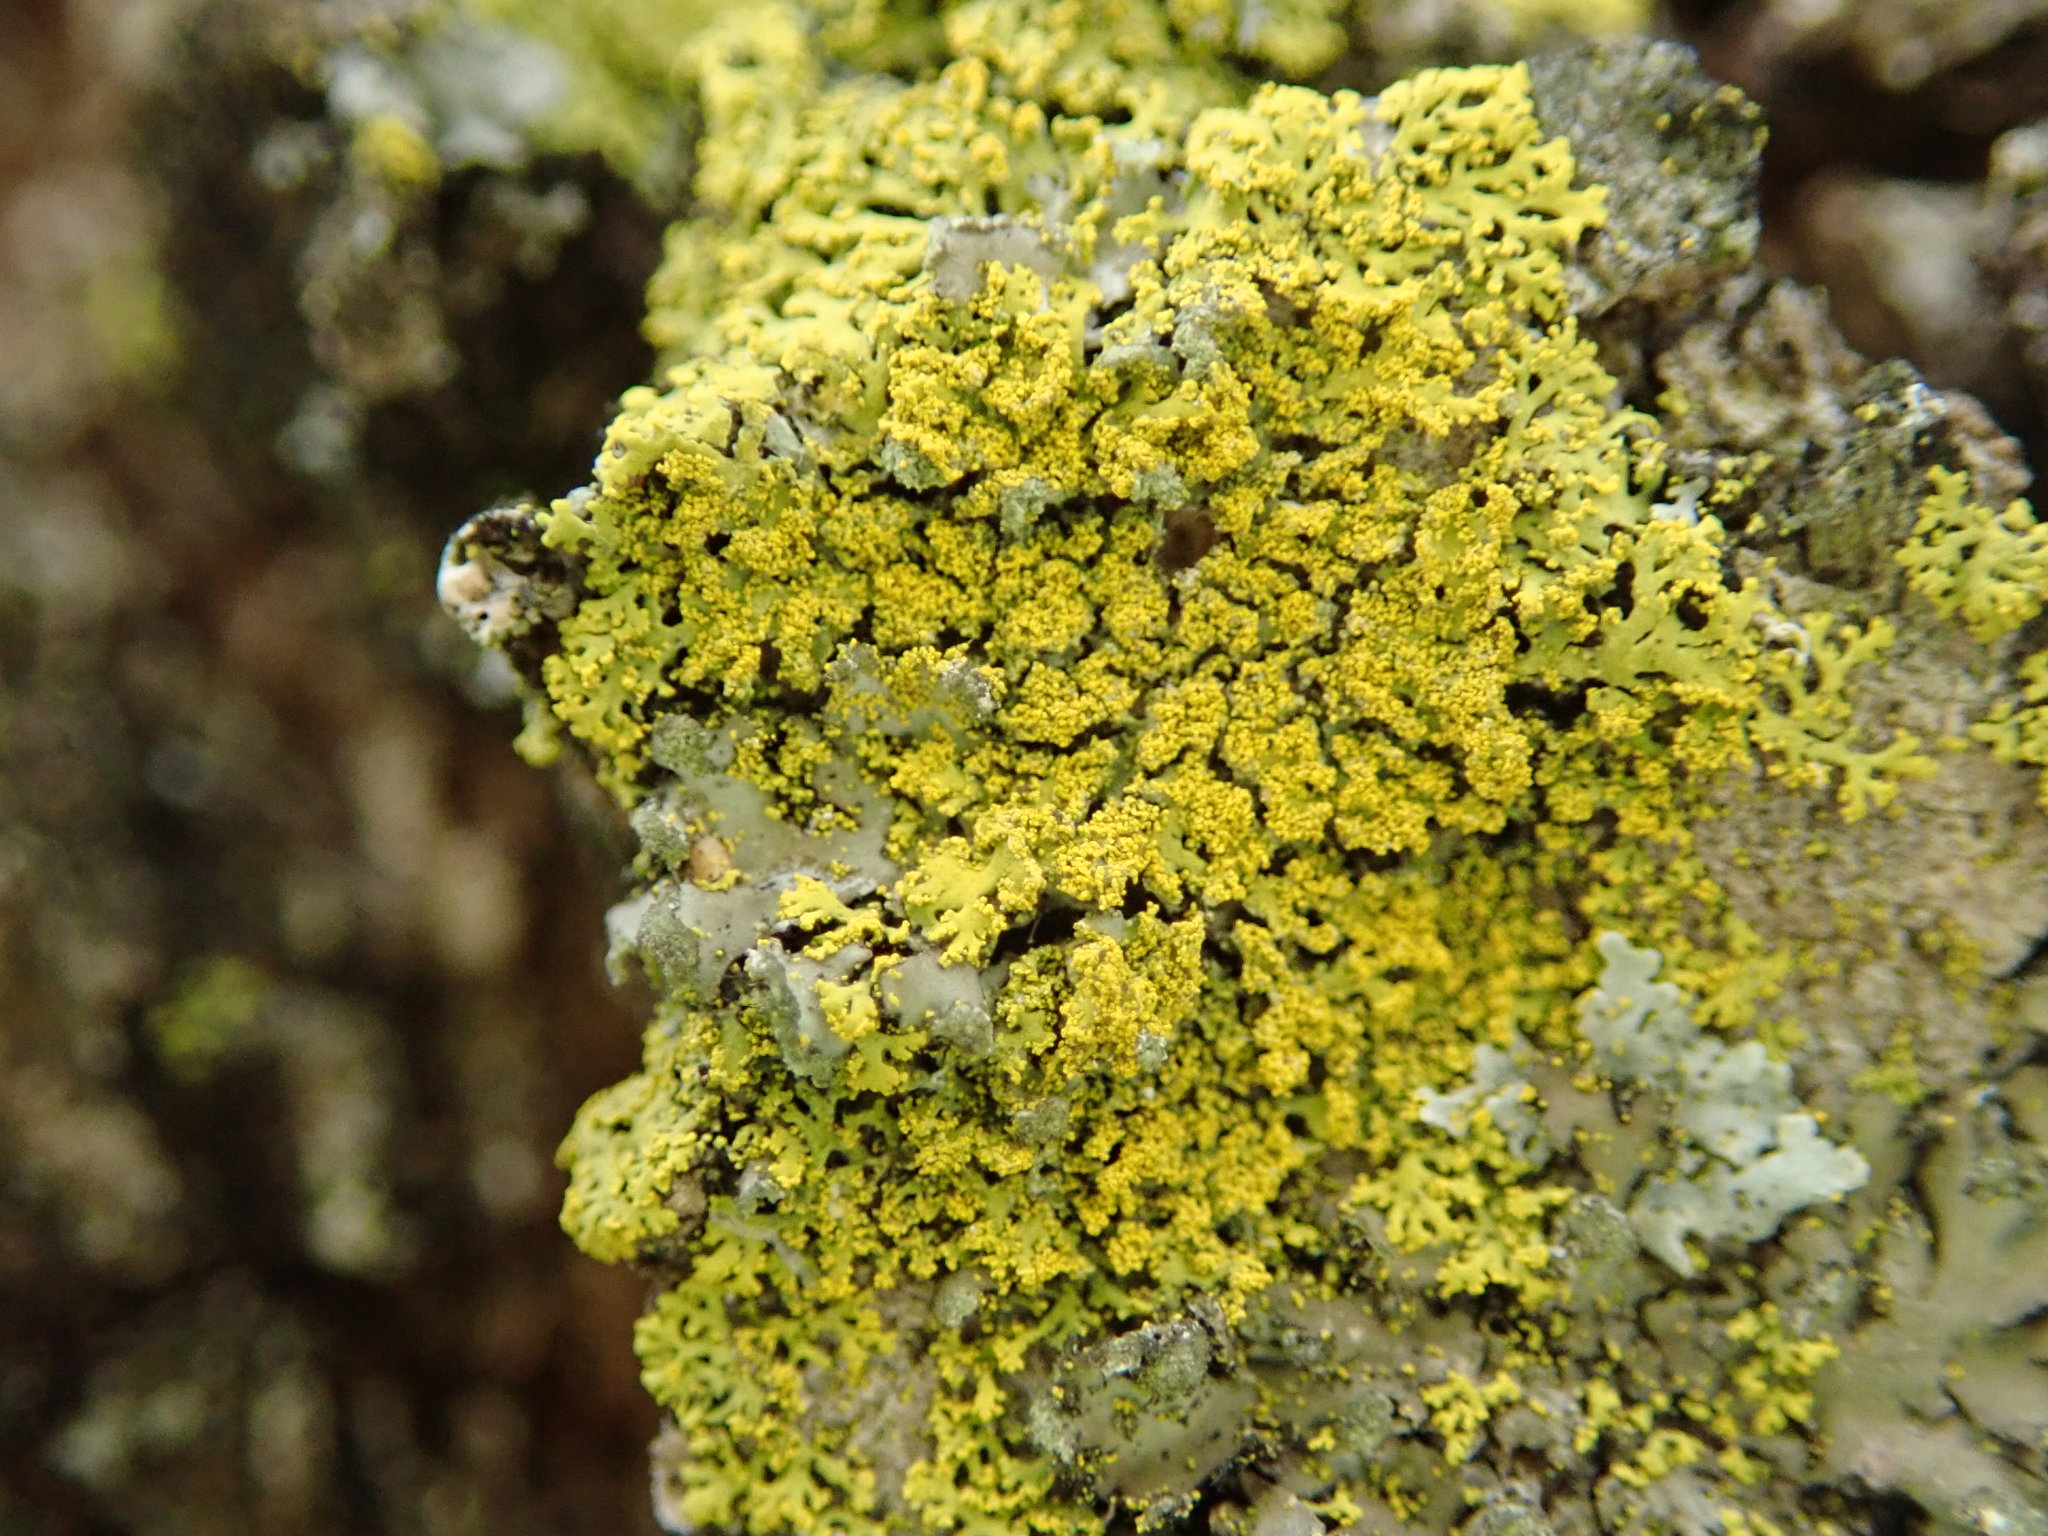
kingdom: Fungi
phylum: Ascomycota
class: Candelariomycetes
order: Candelariales
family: Candelariaceae
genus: Candelaria
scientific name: Candelaria concolor
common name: Candleflame lichen
